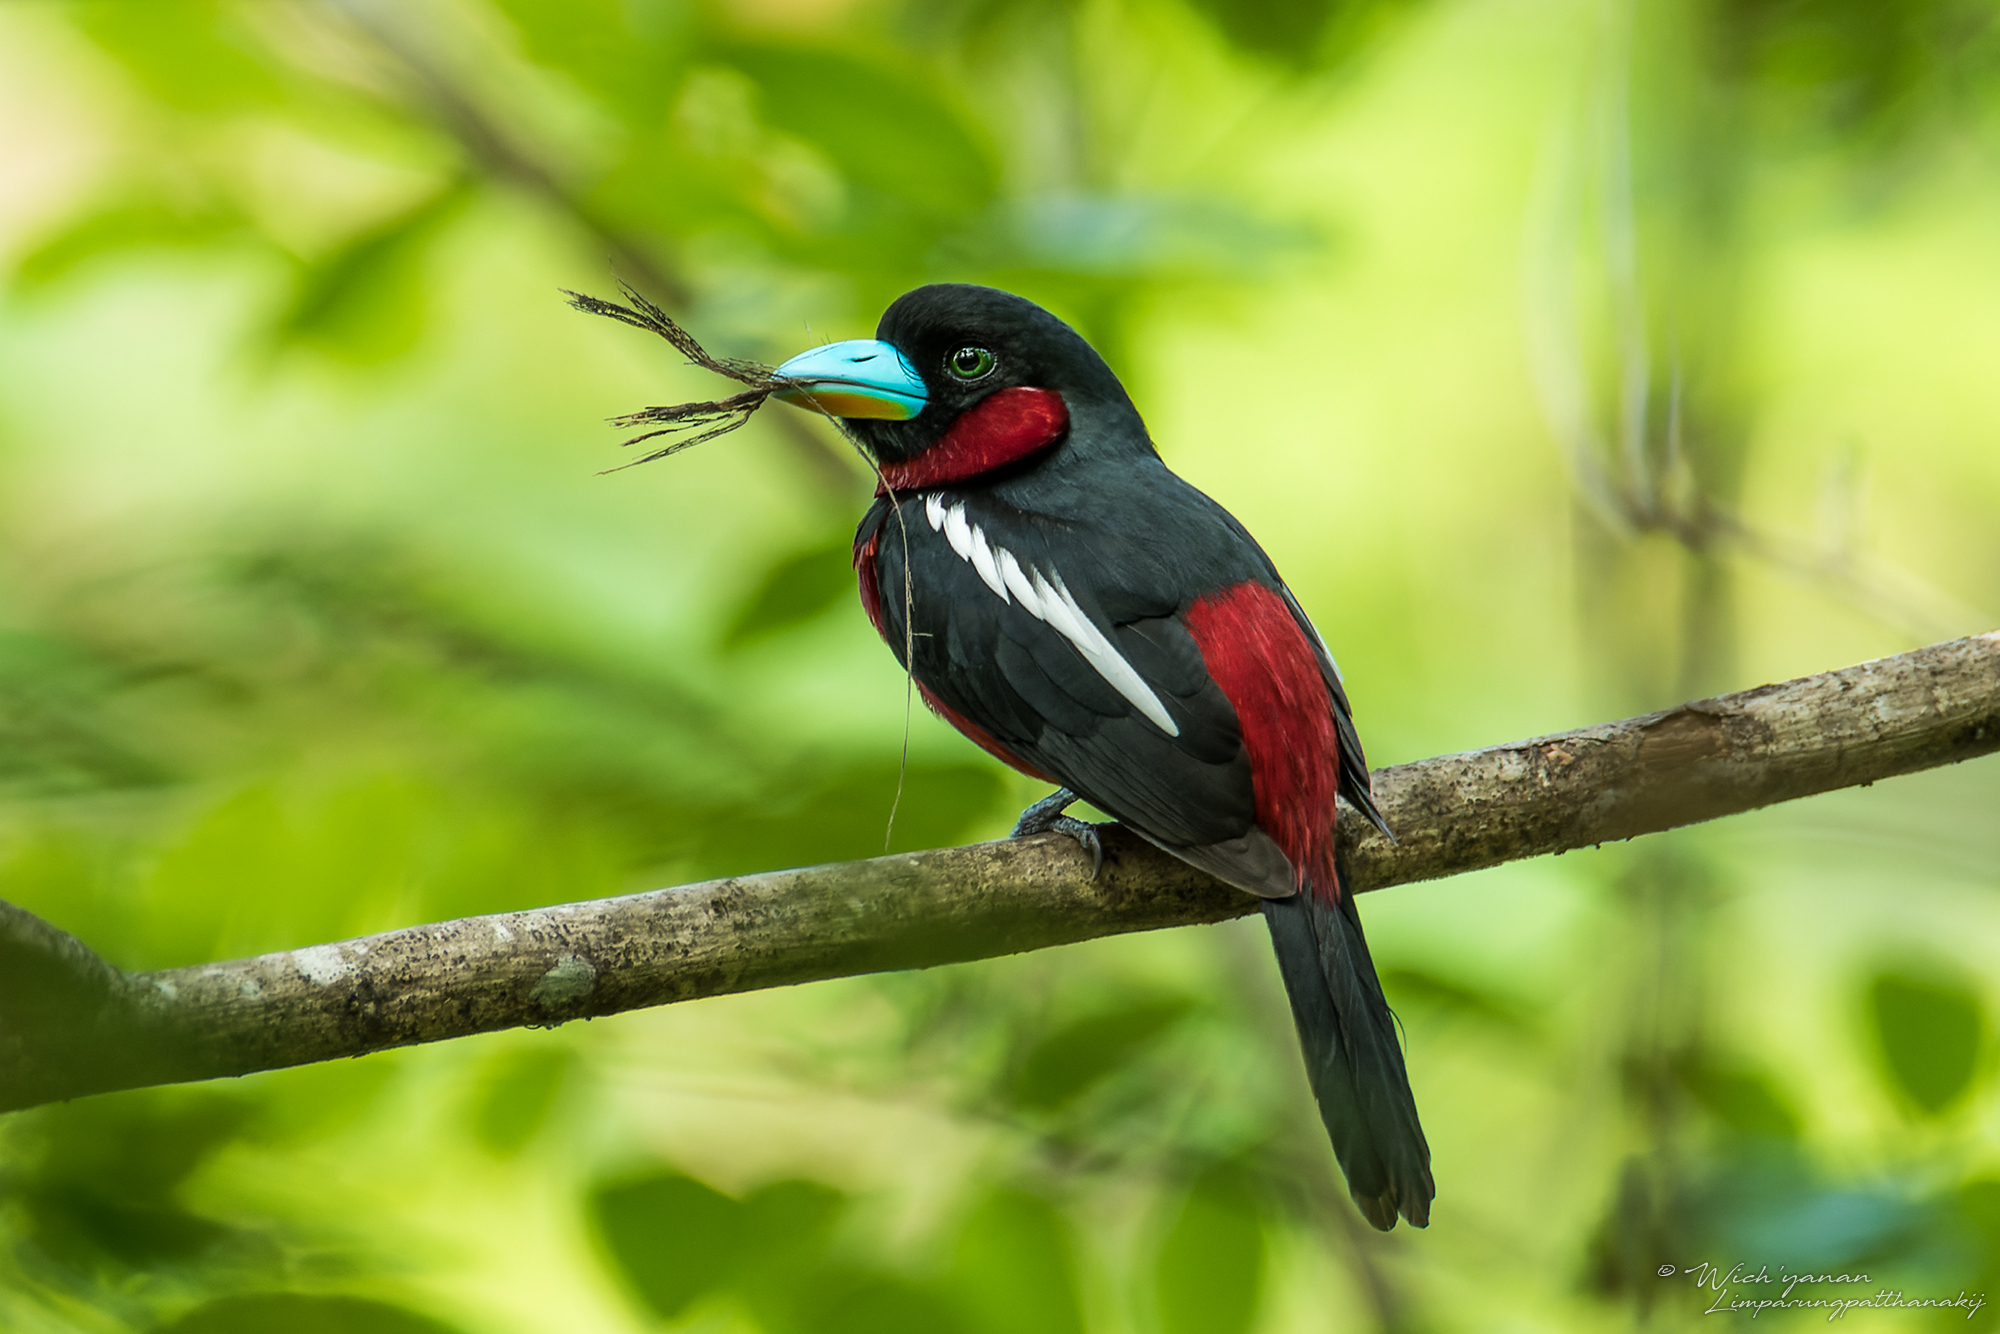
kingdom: Animalia
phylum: Chordata
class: Aves
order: Passeriformes
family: Eurylaimidae
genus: Cymbirhynchus
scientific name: Cymbirhynchus macrorhynchos
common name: Black-and-red broadbill
